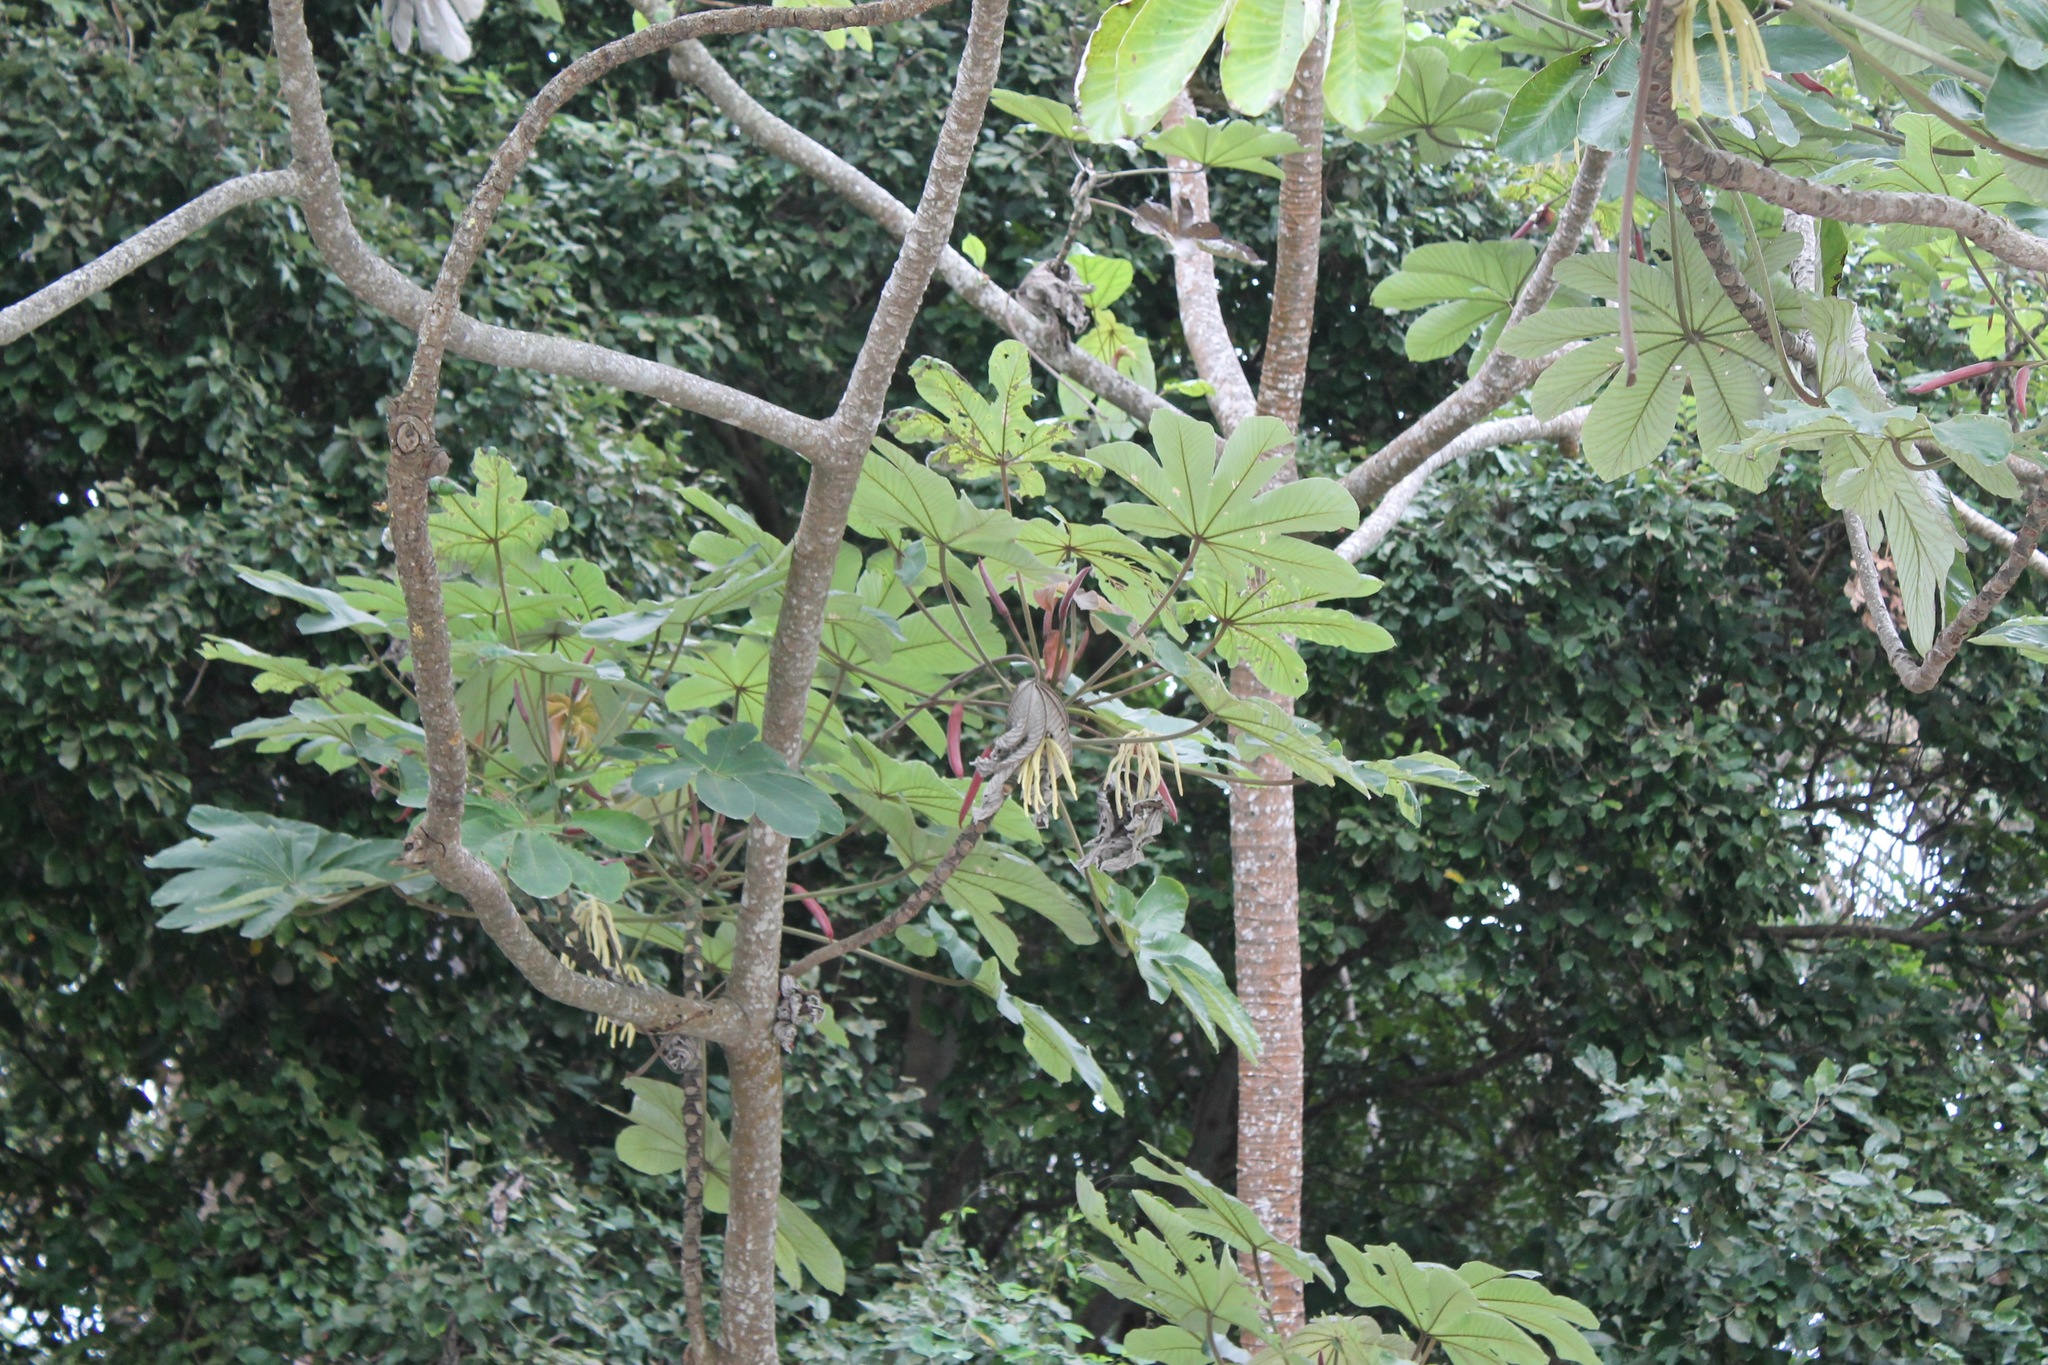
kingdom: Plantae
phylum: Tracheophyta
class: Magnoliopsida
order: Rosales
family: Urticaceae
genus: Cecropia
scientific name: Cecropia obtusifolia
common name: Trumpet tree
